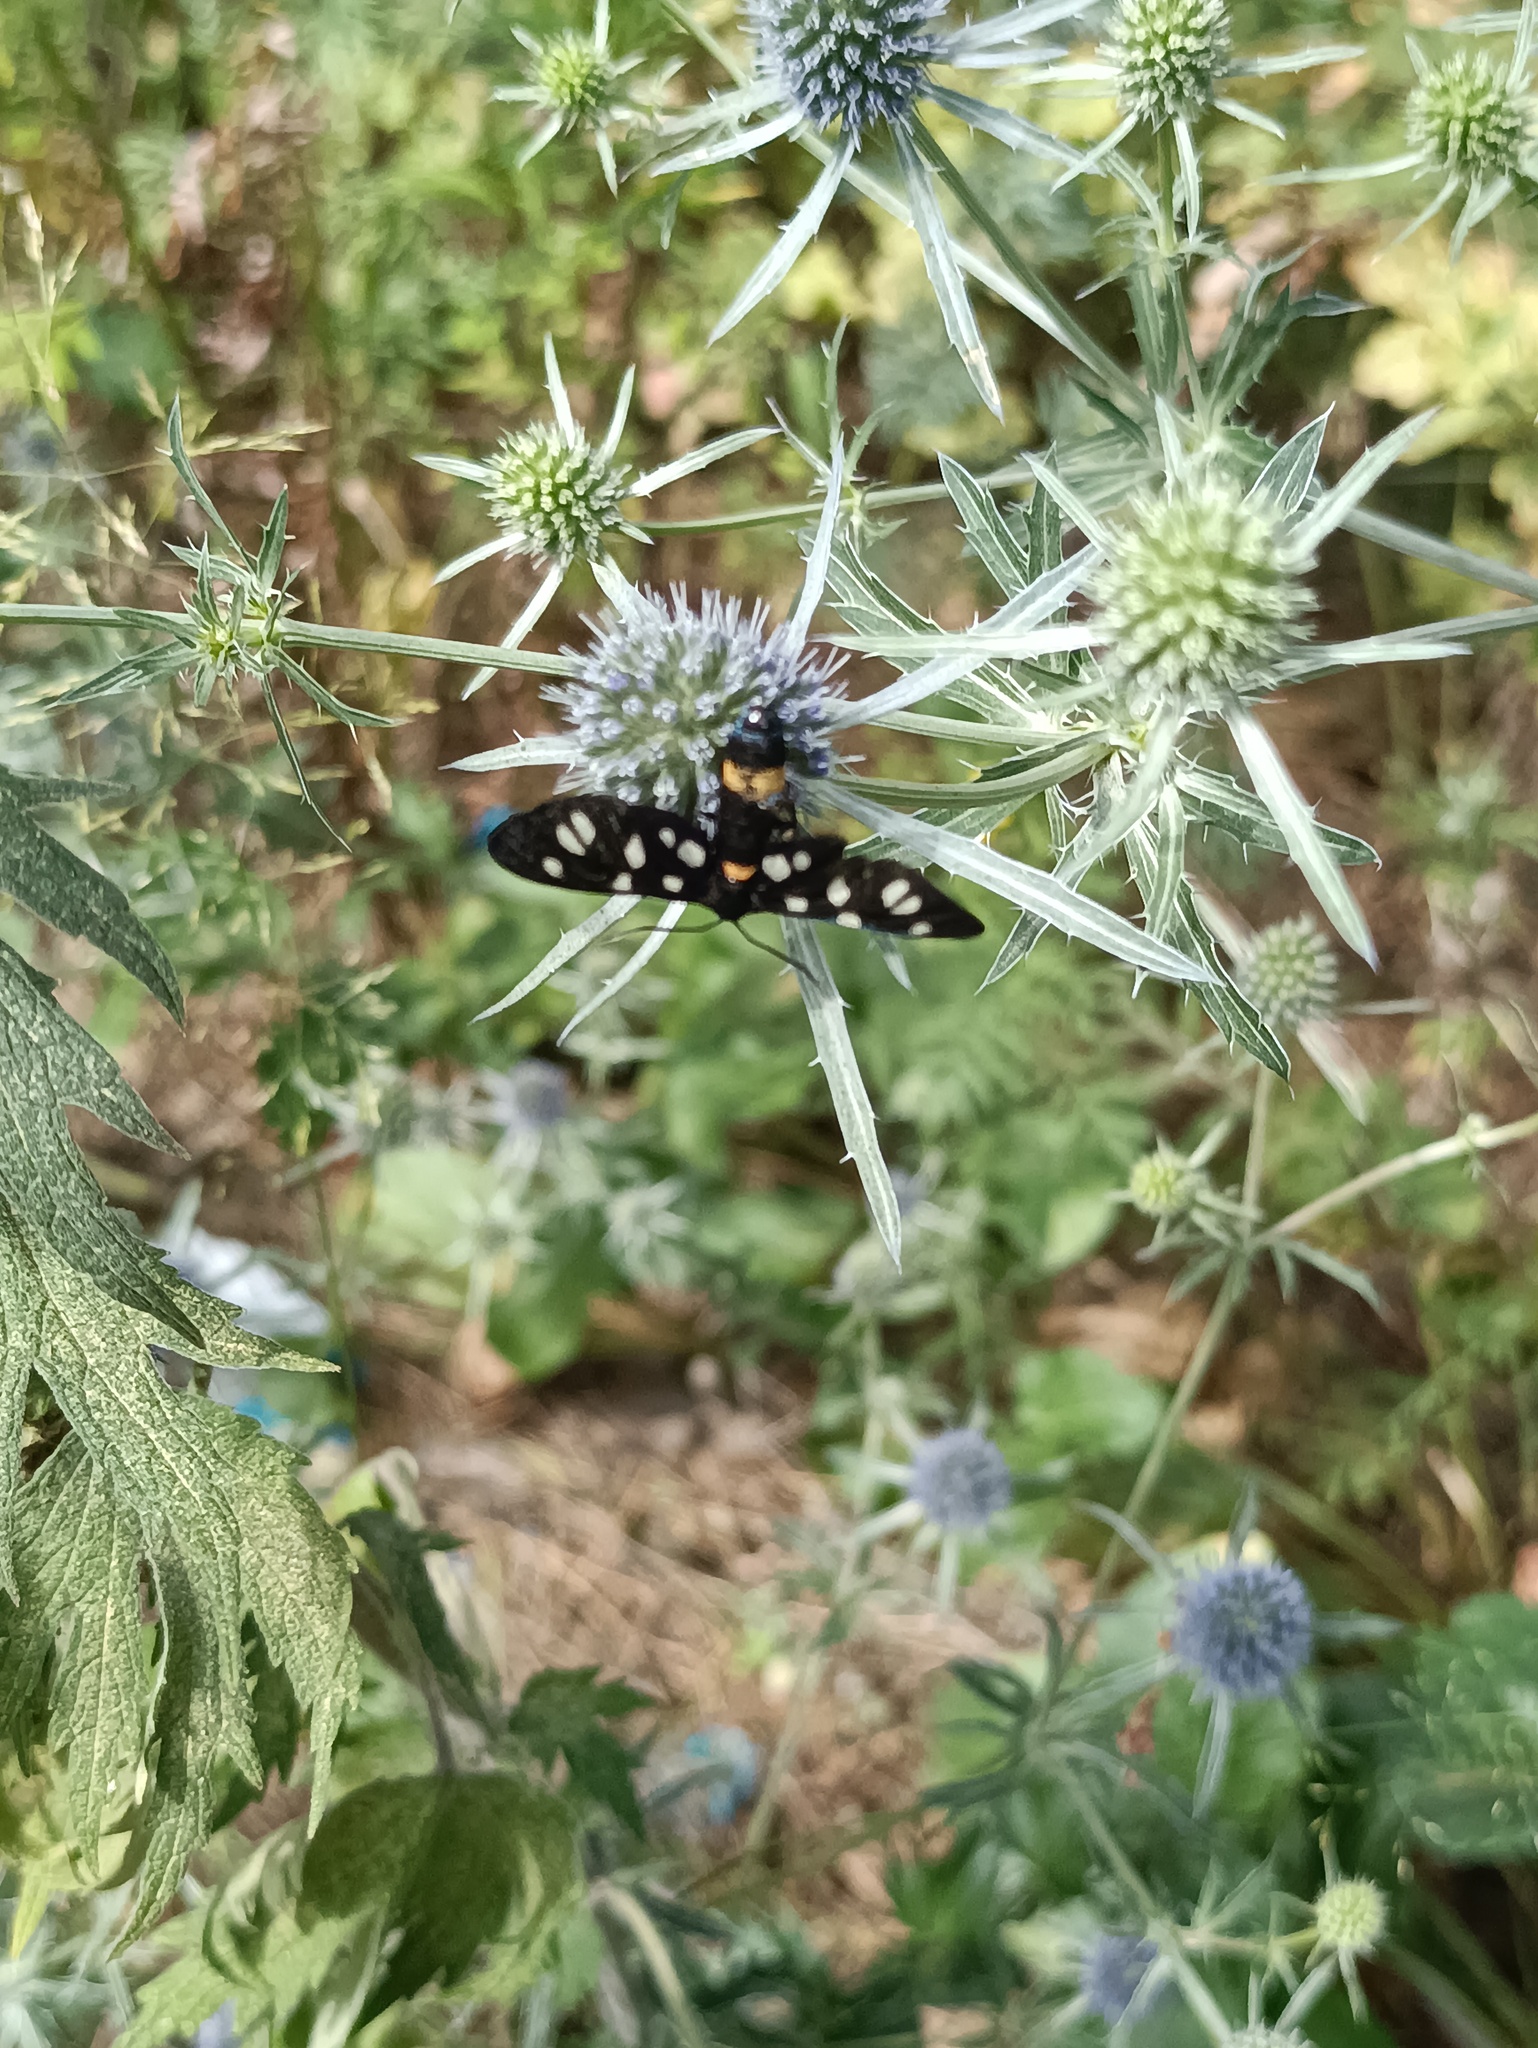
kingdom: Animalia
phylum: Arthropoda
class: Insecta
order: Lepidoptera
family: Erebidae
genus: Amata
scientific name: Amata nigricornis
